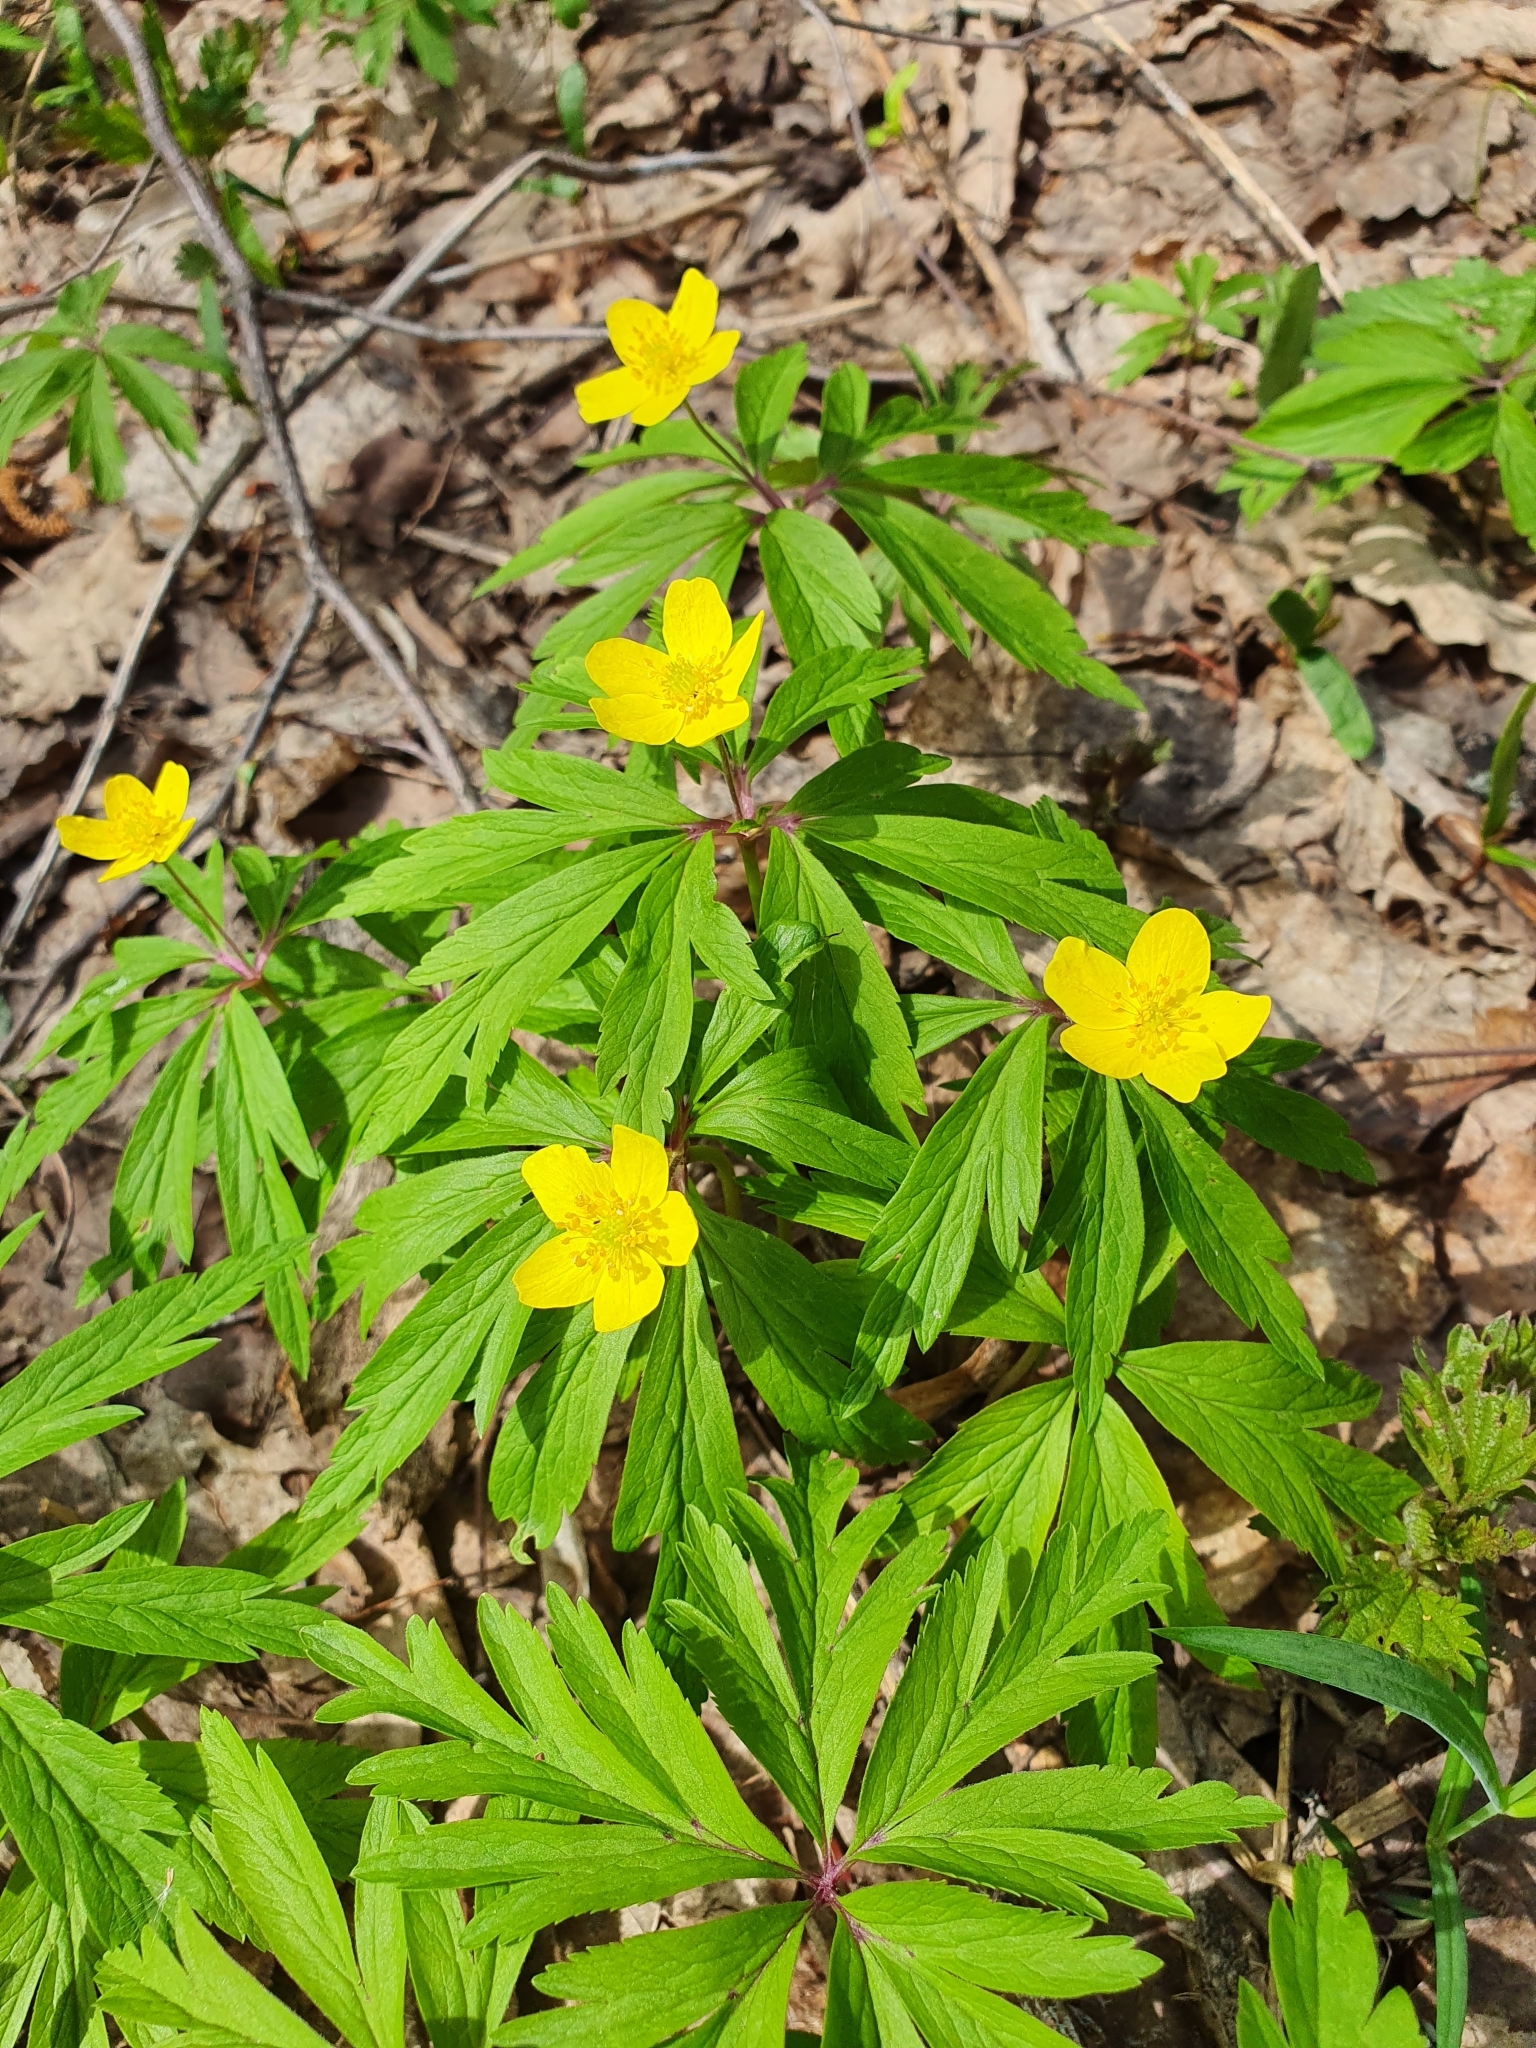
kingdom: Plantae
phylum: Tracheophyta
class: Magnoliopsida
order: Ranunculales
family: Ranunculaceae
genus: Anemone
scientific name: Anemone ranunculoides
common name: Yellow anemone
